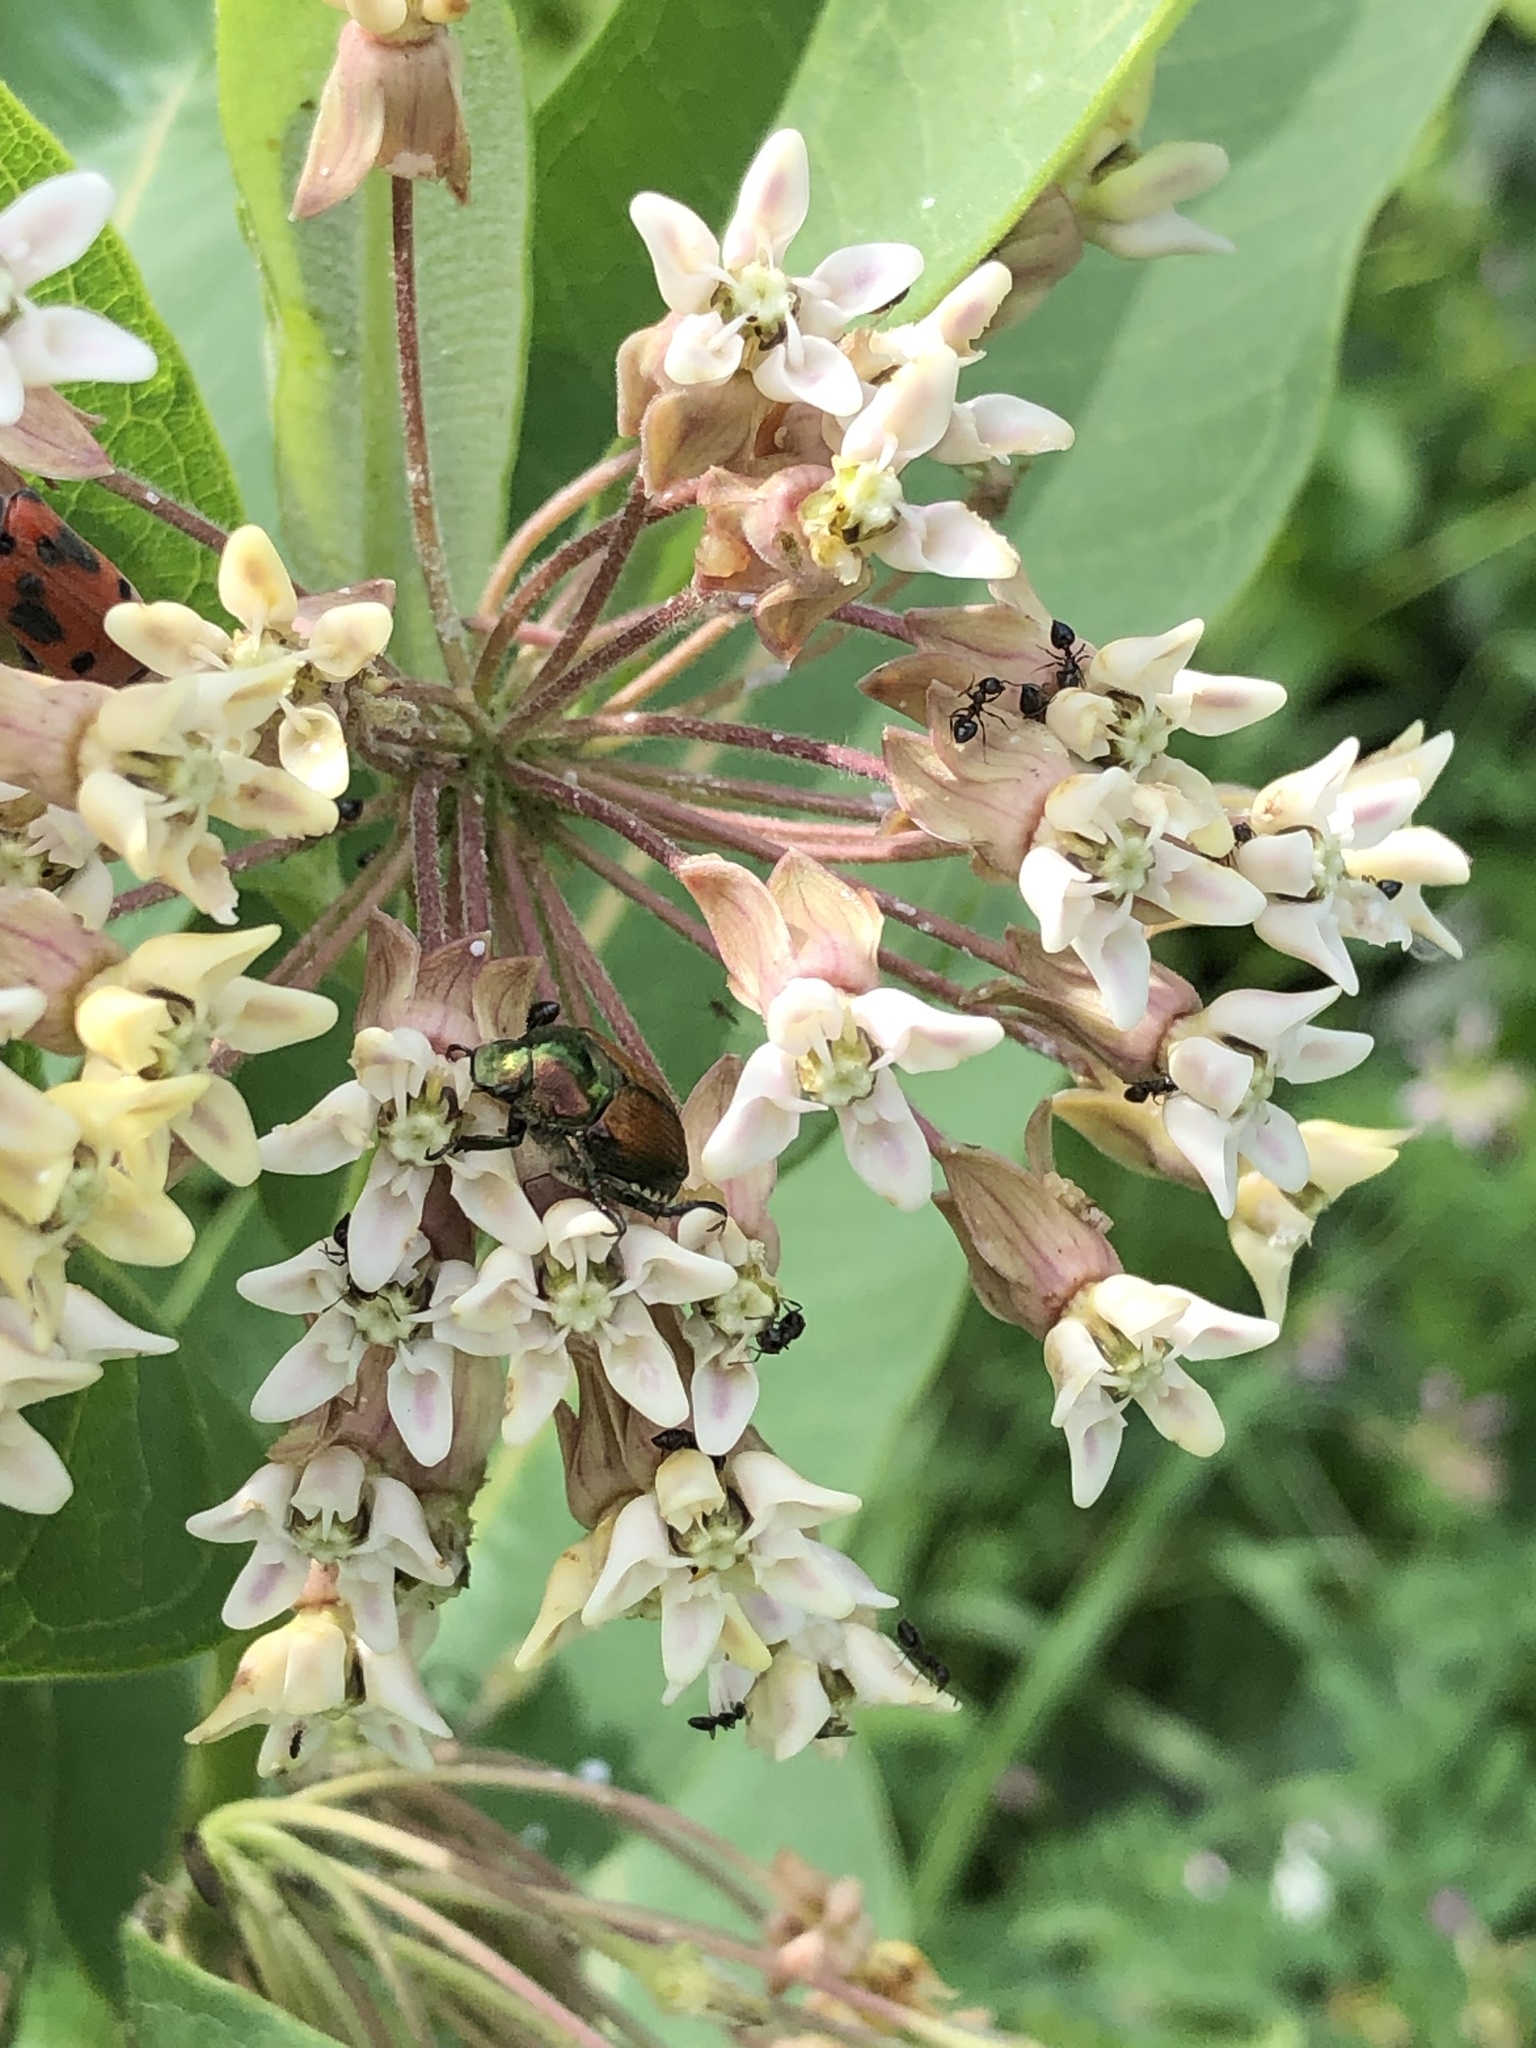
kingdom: Animalia
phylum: Arthropoda
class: Insecta
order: Coleoptera
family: Scarabaeidae
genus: Popillia
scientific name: Popillia japonica
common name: Japanese beetle
